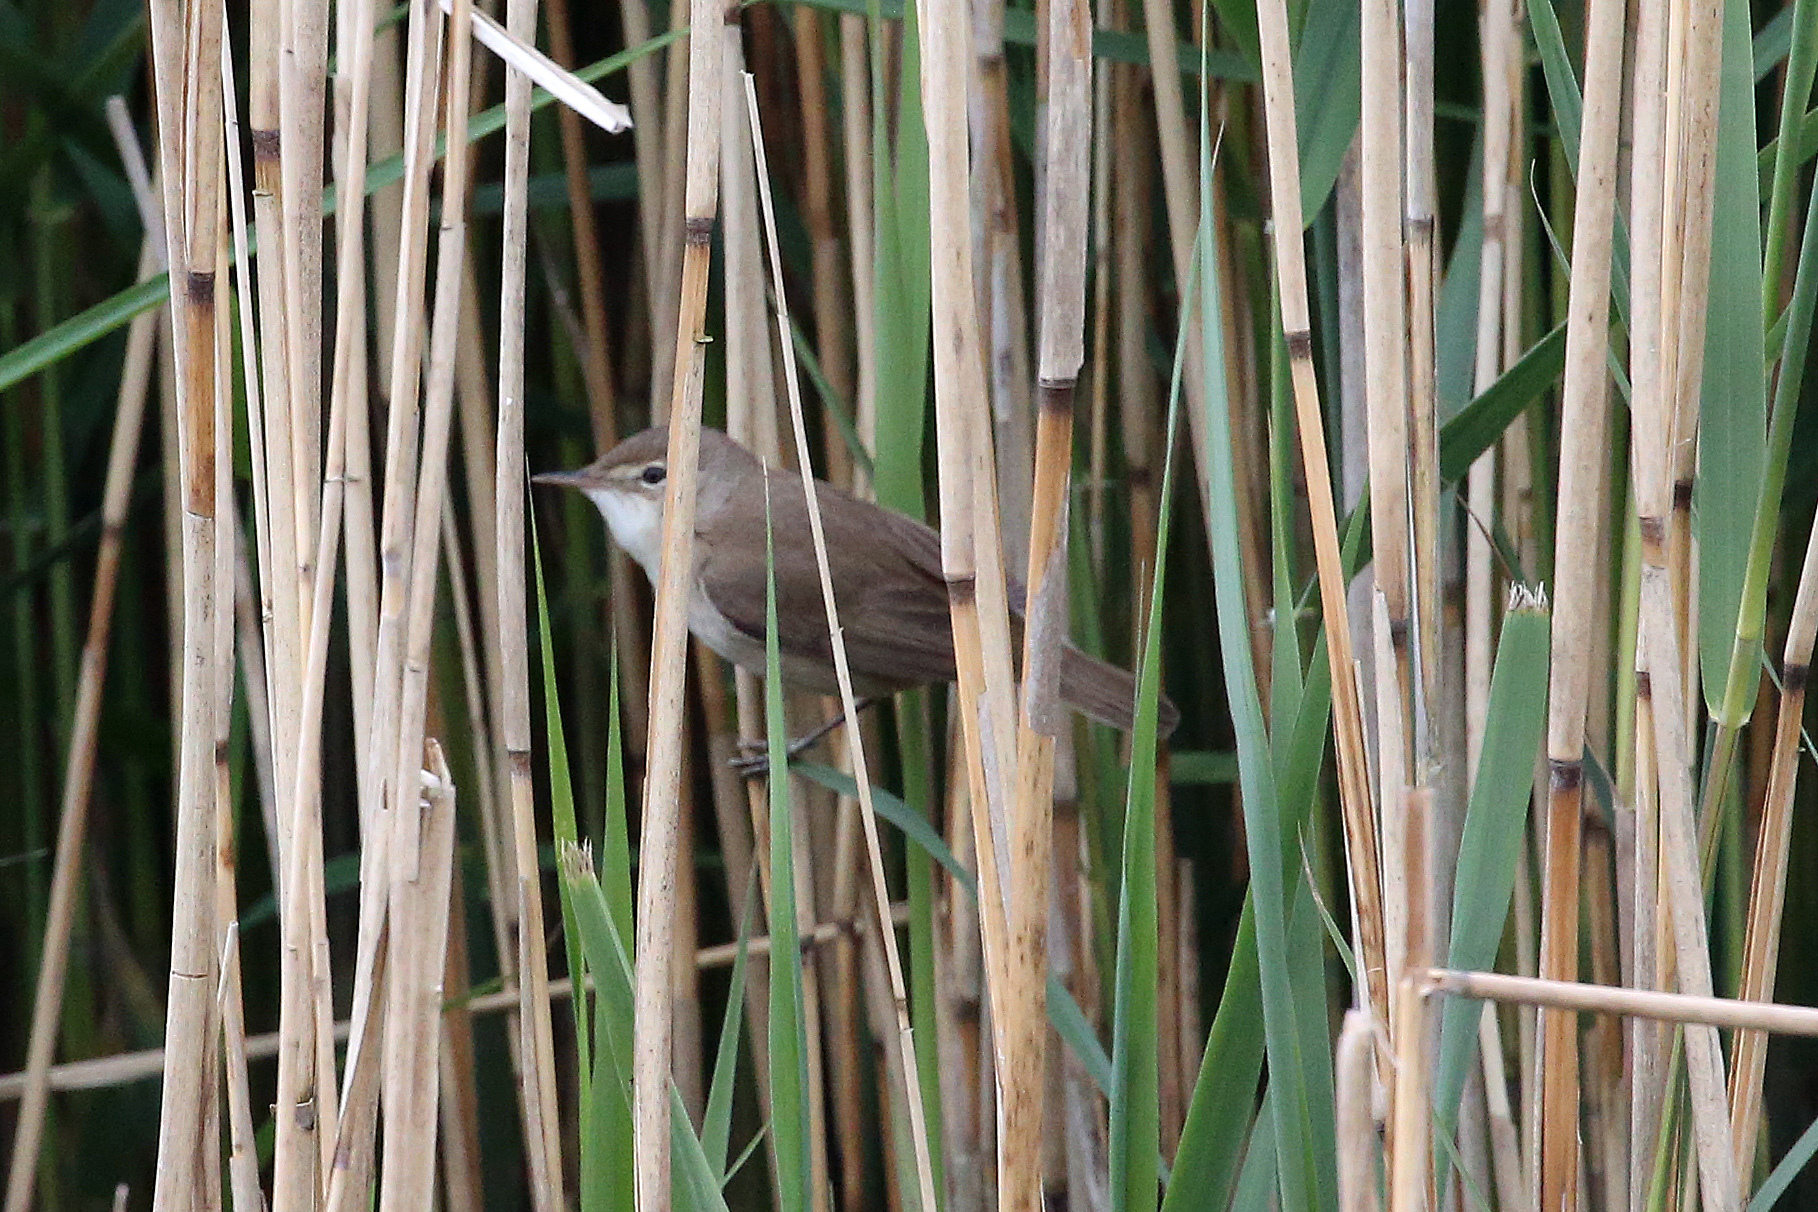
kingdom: Animalia
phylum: Chordata
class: Aves
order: Passeriformes
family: Acrocephalidae
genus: Acrocephalus
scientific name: Acrocephalus scirpaceus
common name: Eurasian reed warbler
